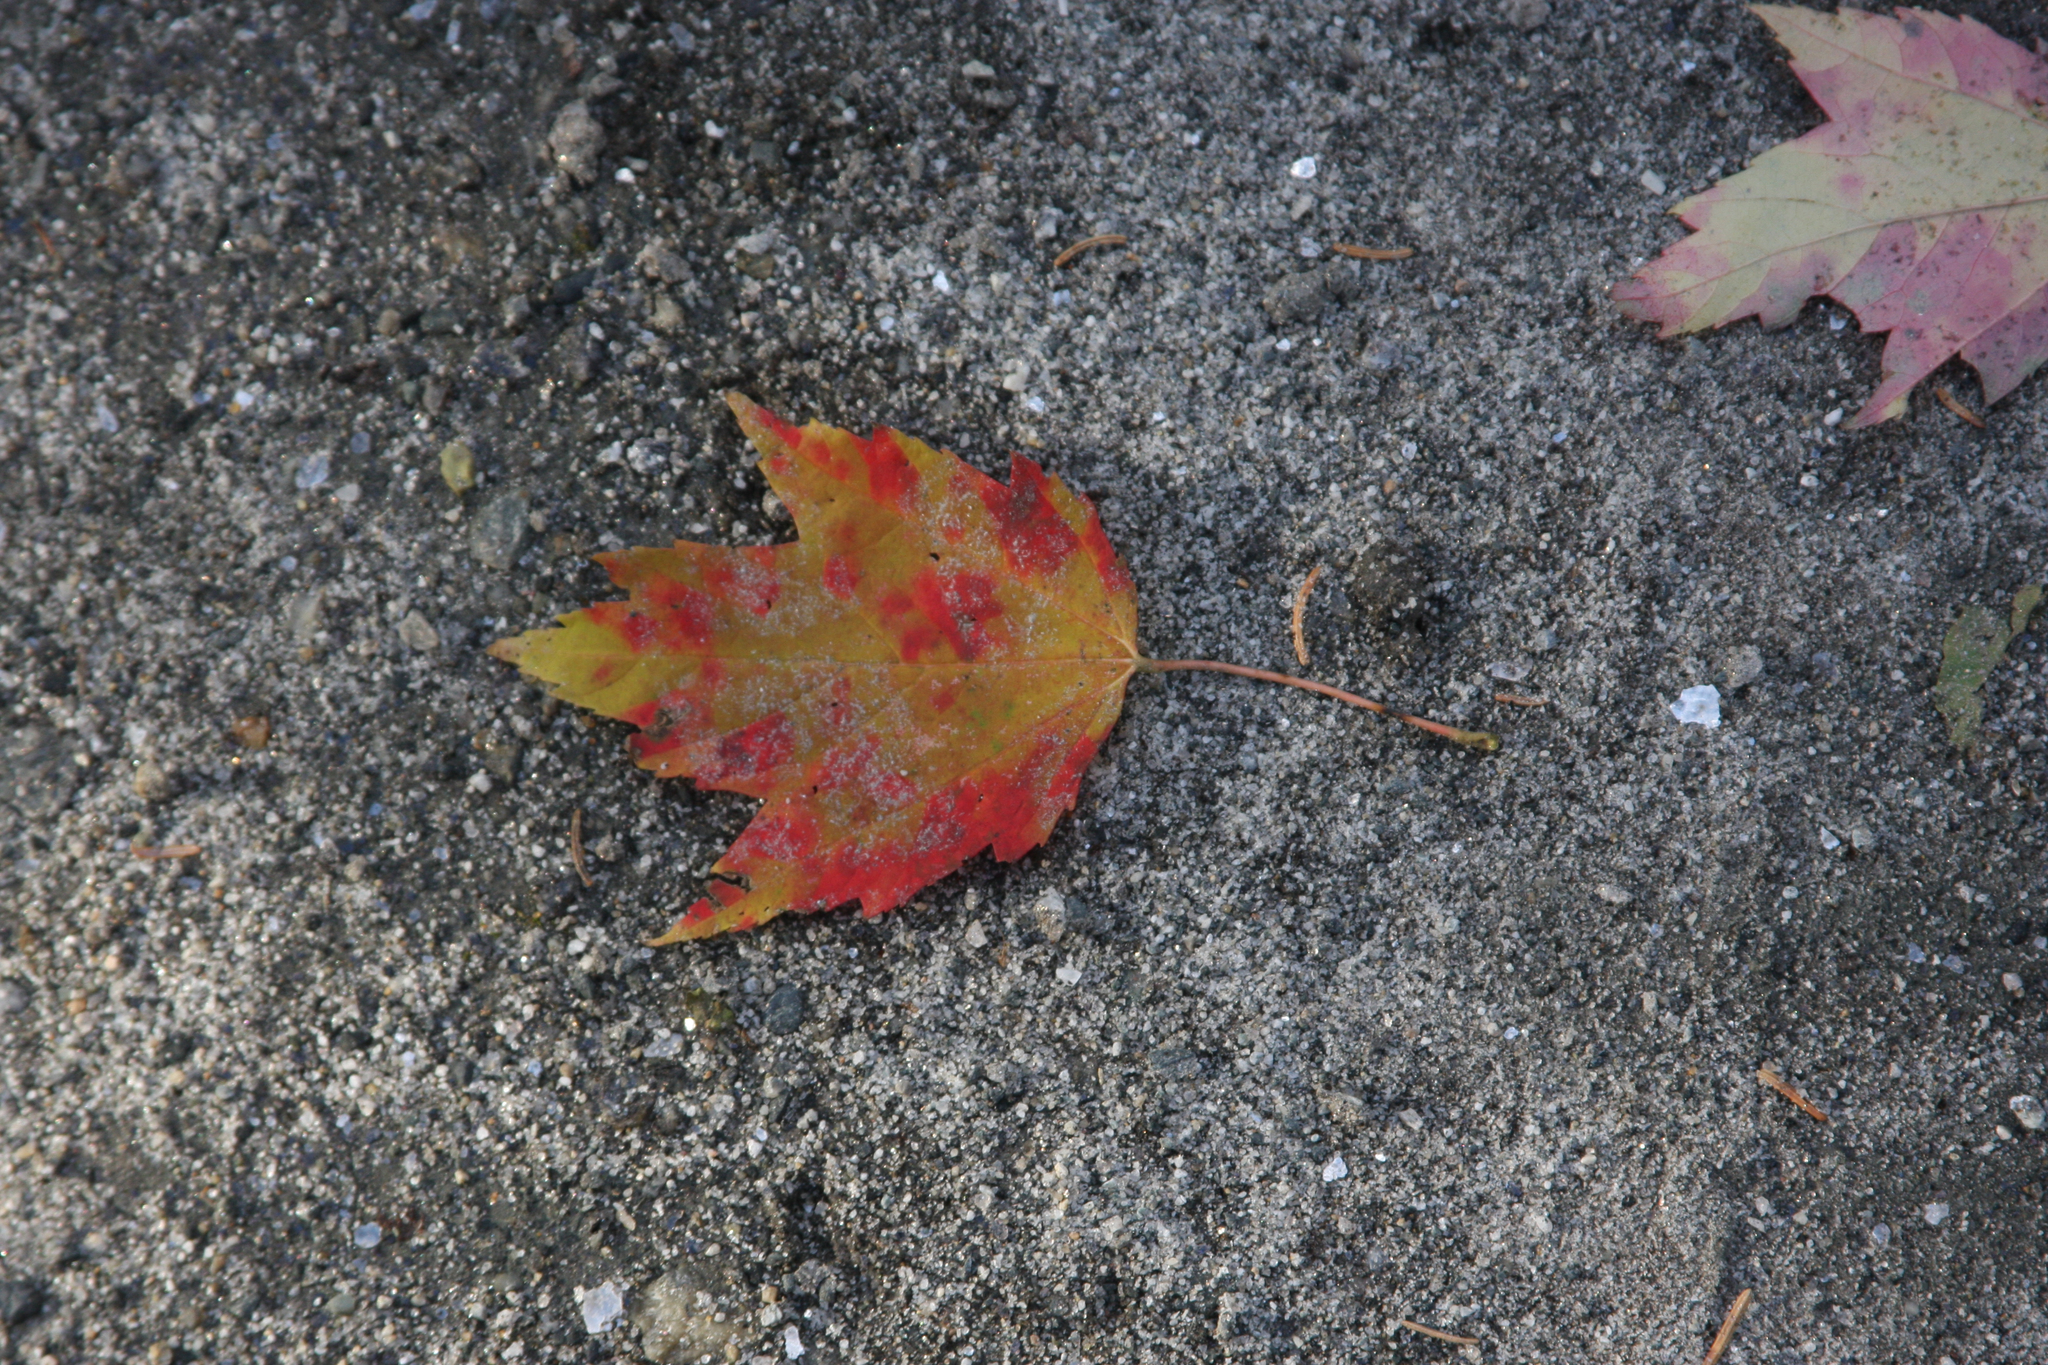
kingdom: Plantae
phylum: Tracheophyta
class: Magnoliopsida
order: Sapindales
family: Sapindaceae
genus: Acer
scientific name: Acer rubrum
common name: Red maple
